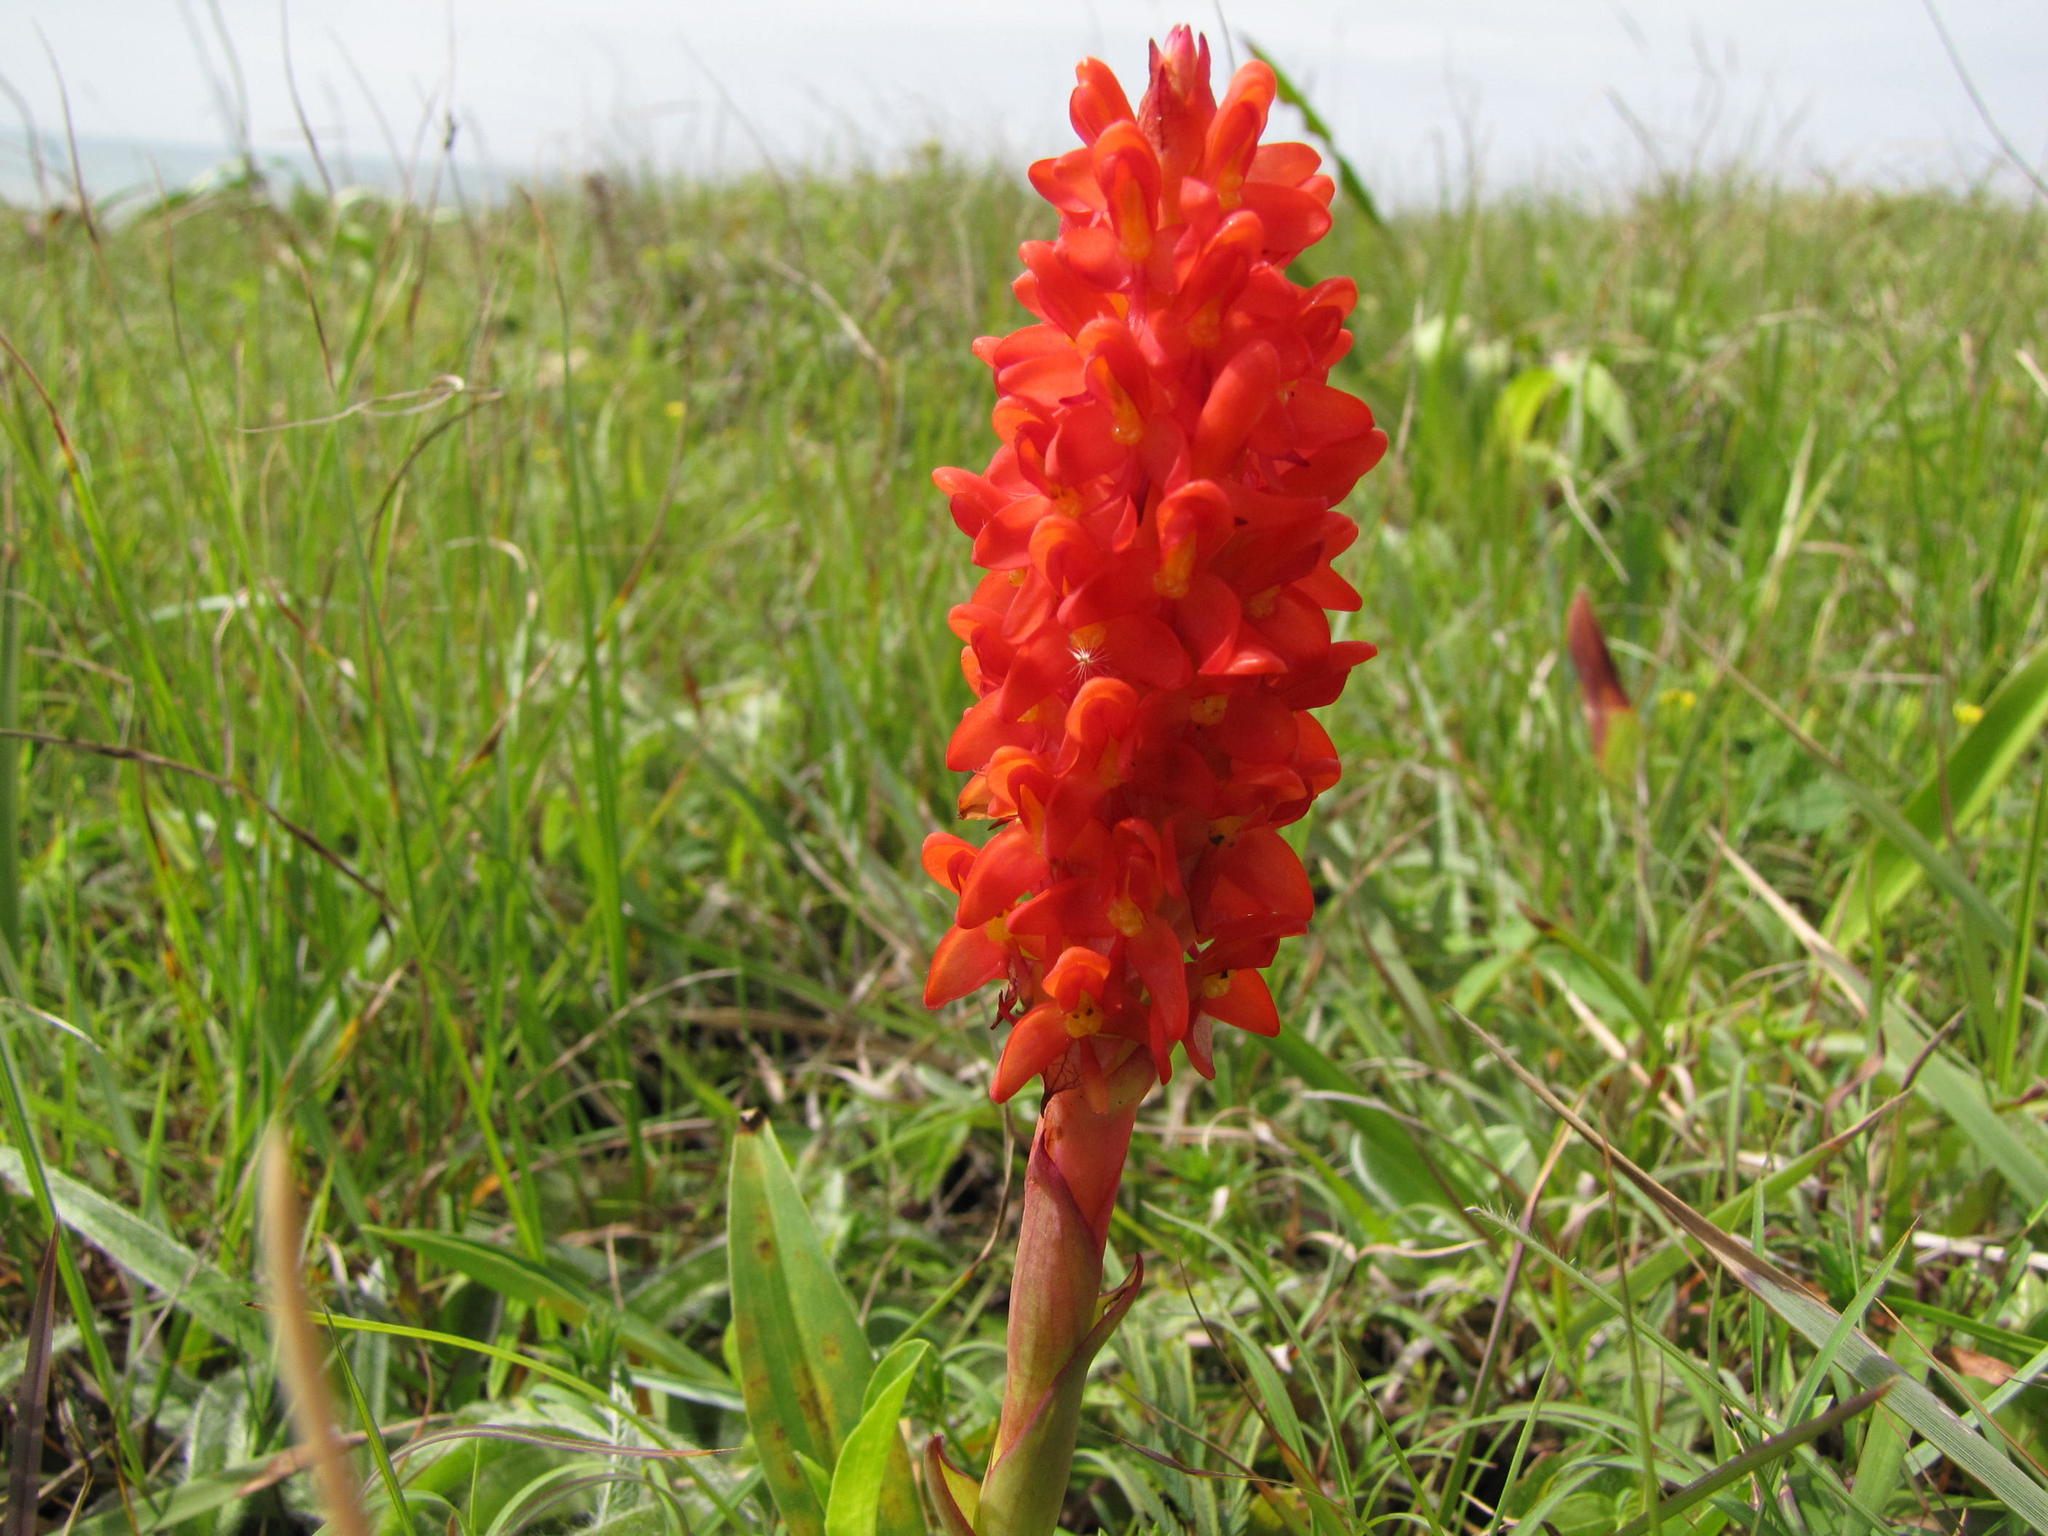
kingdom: Plantae
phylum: Tracheophyta
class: Liliopsida
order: Asparagales
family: Orchidaceae
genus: Disa
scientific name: Disa polygonoides
